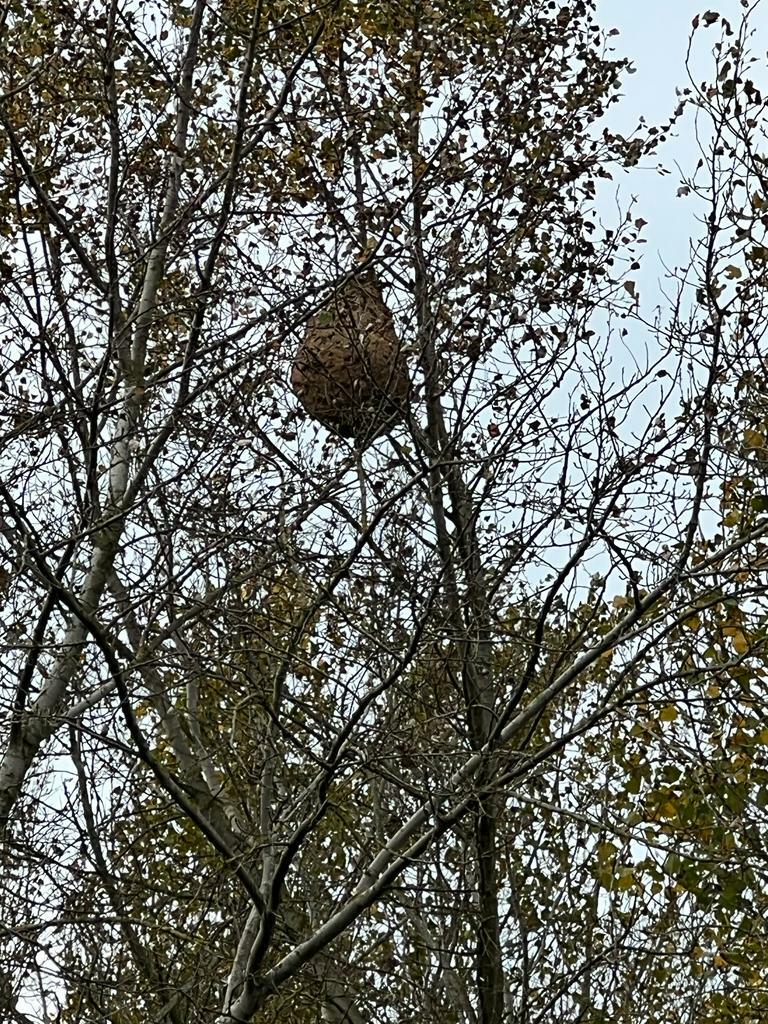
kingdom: Animalia
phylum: Arthropoda
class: Insecta
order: Hymenoptera
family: Vespidae
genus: Vespa
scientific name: Vespa velutina
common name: Asian hornet
